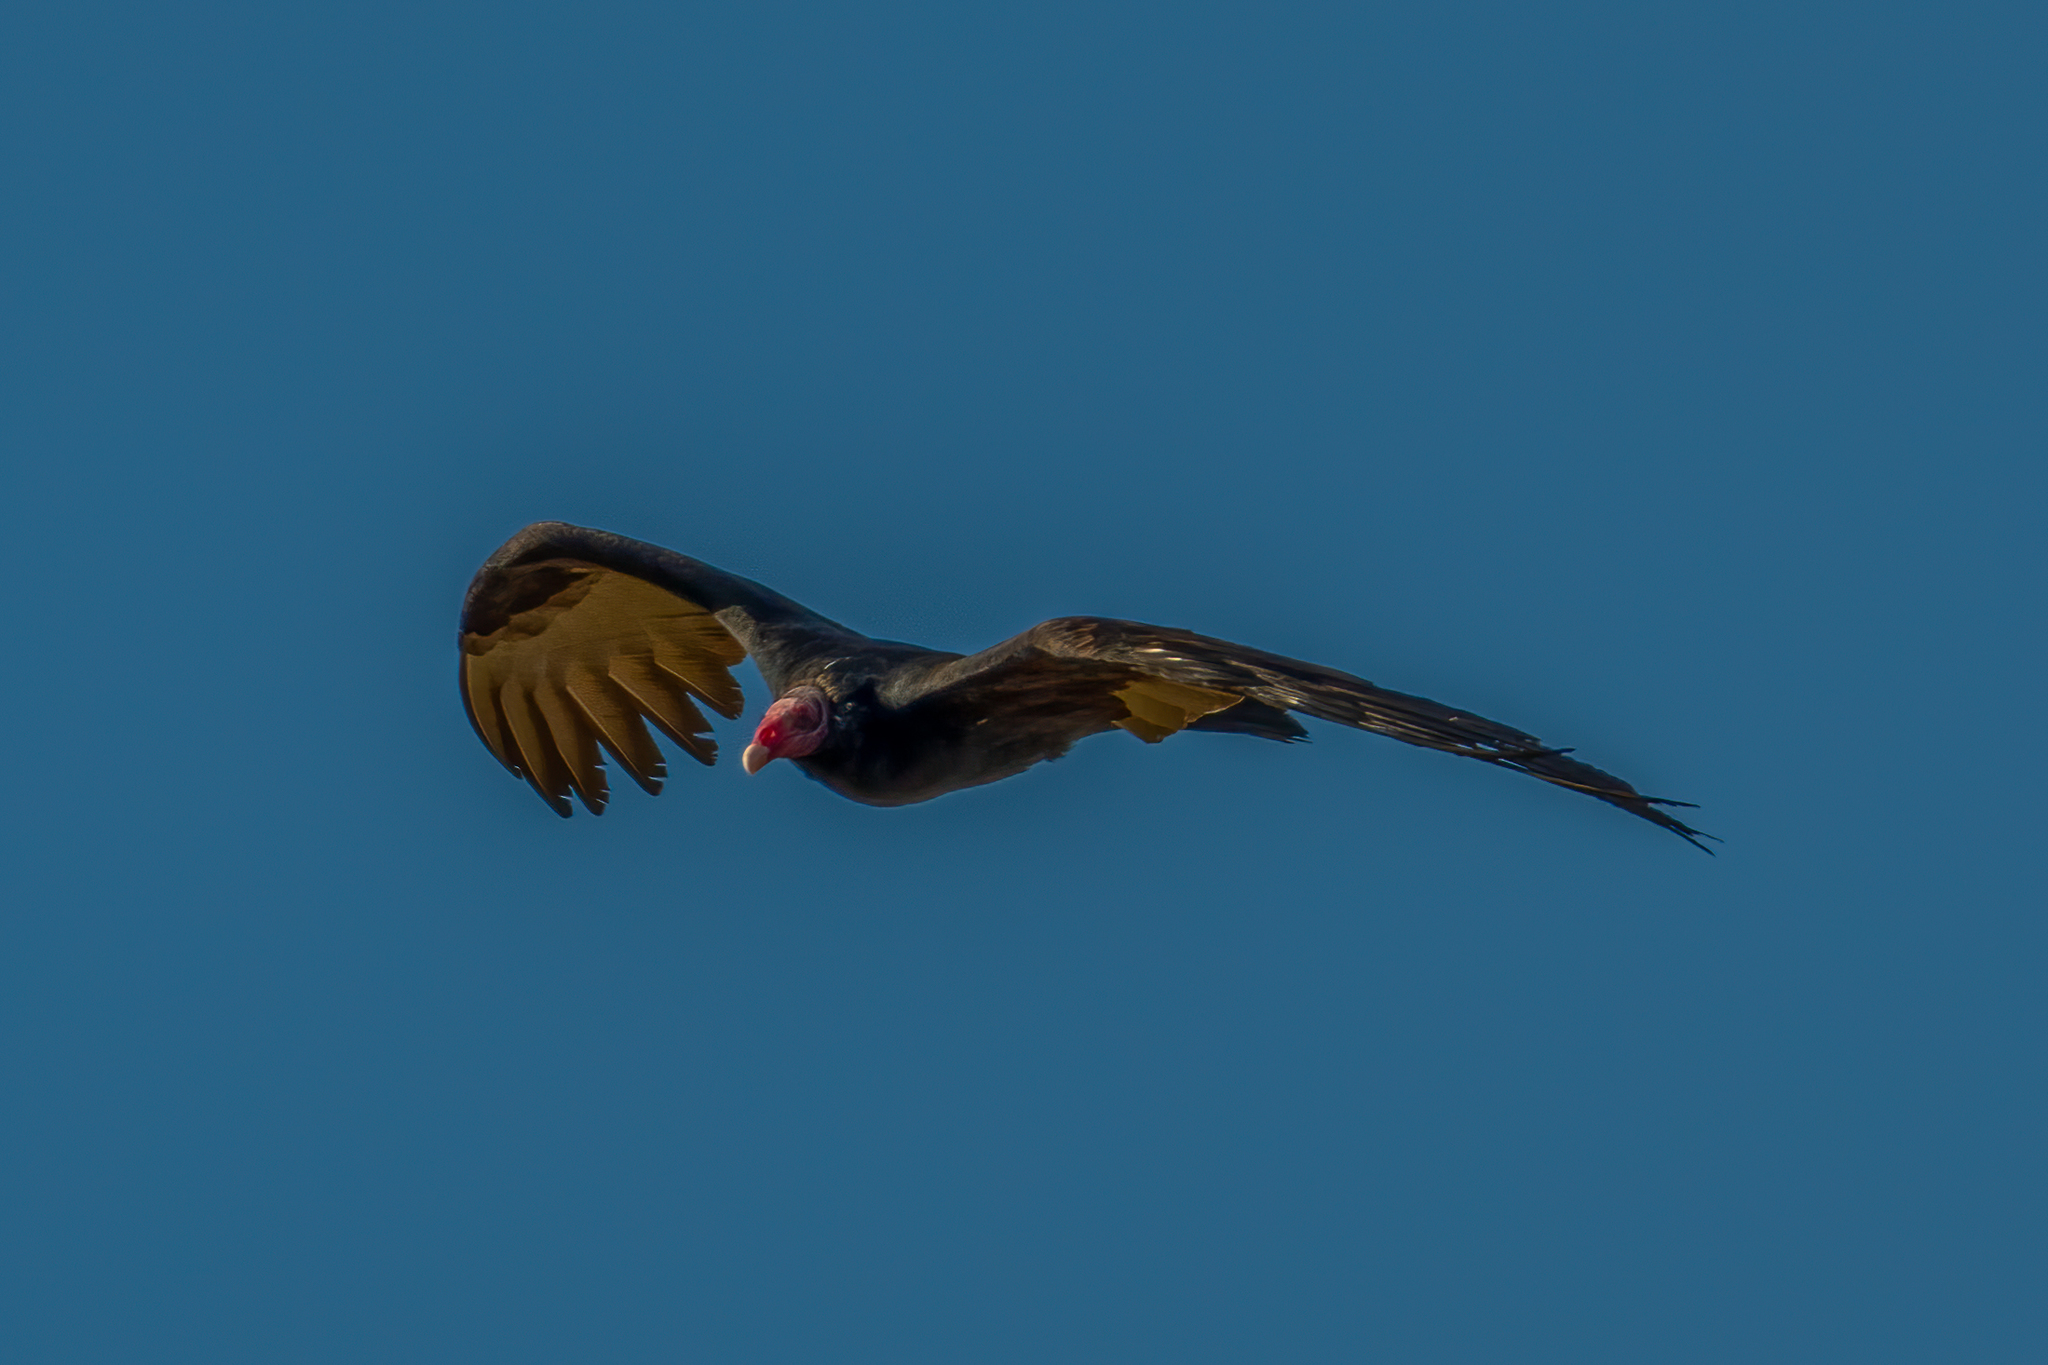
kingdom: Animalia
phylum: Chordata
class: Aves
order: Accipitriformes
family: Cathartidae
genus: Cathartes
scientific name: Cathartes aura
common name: Turkey vulture
